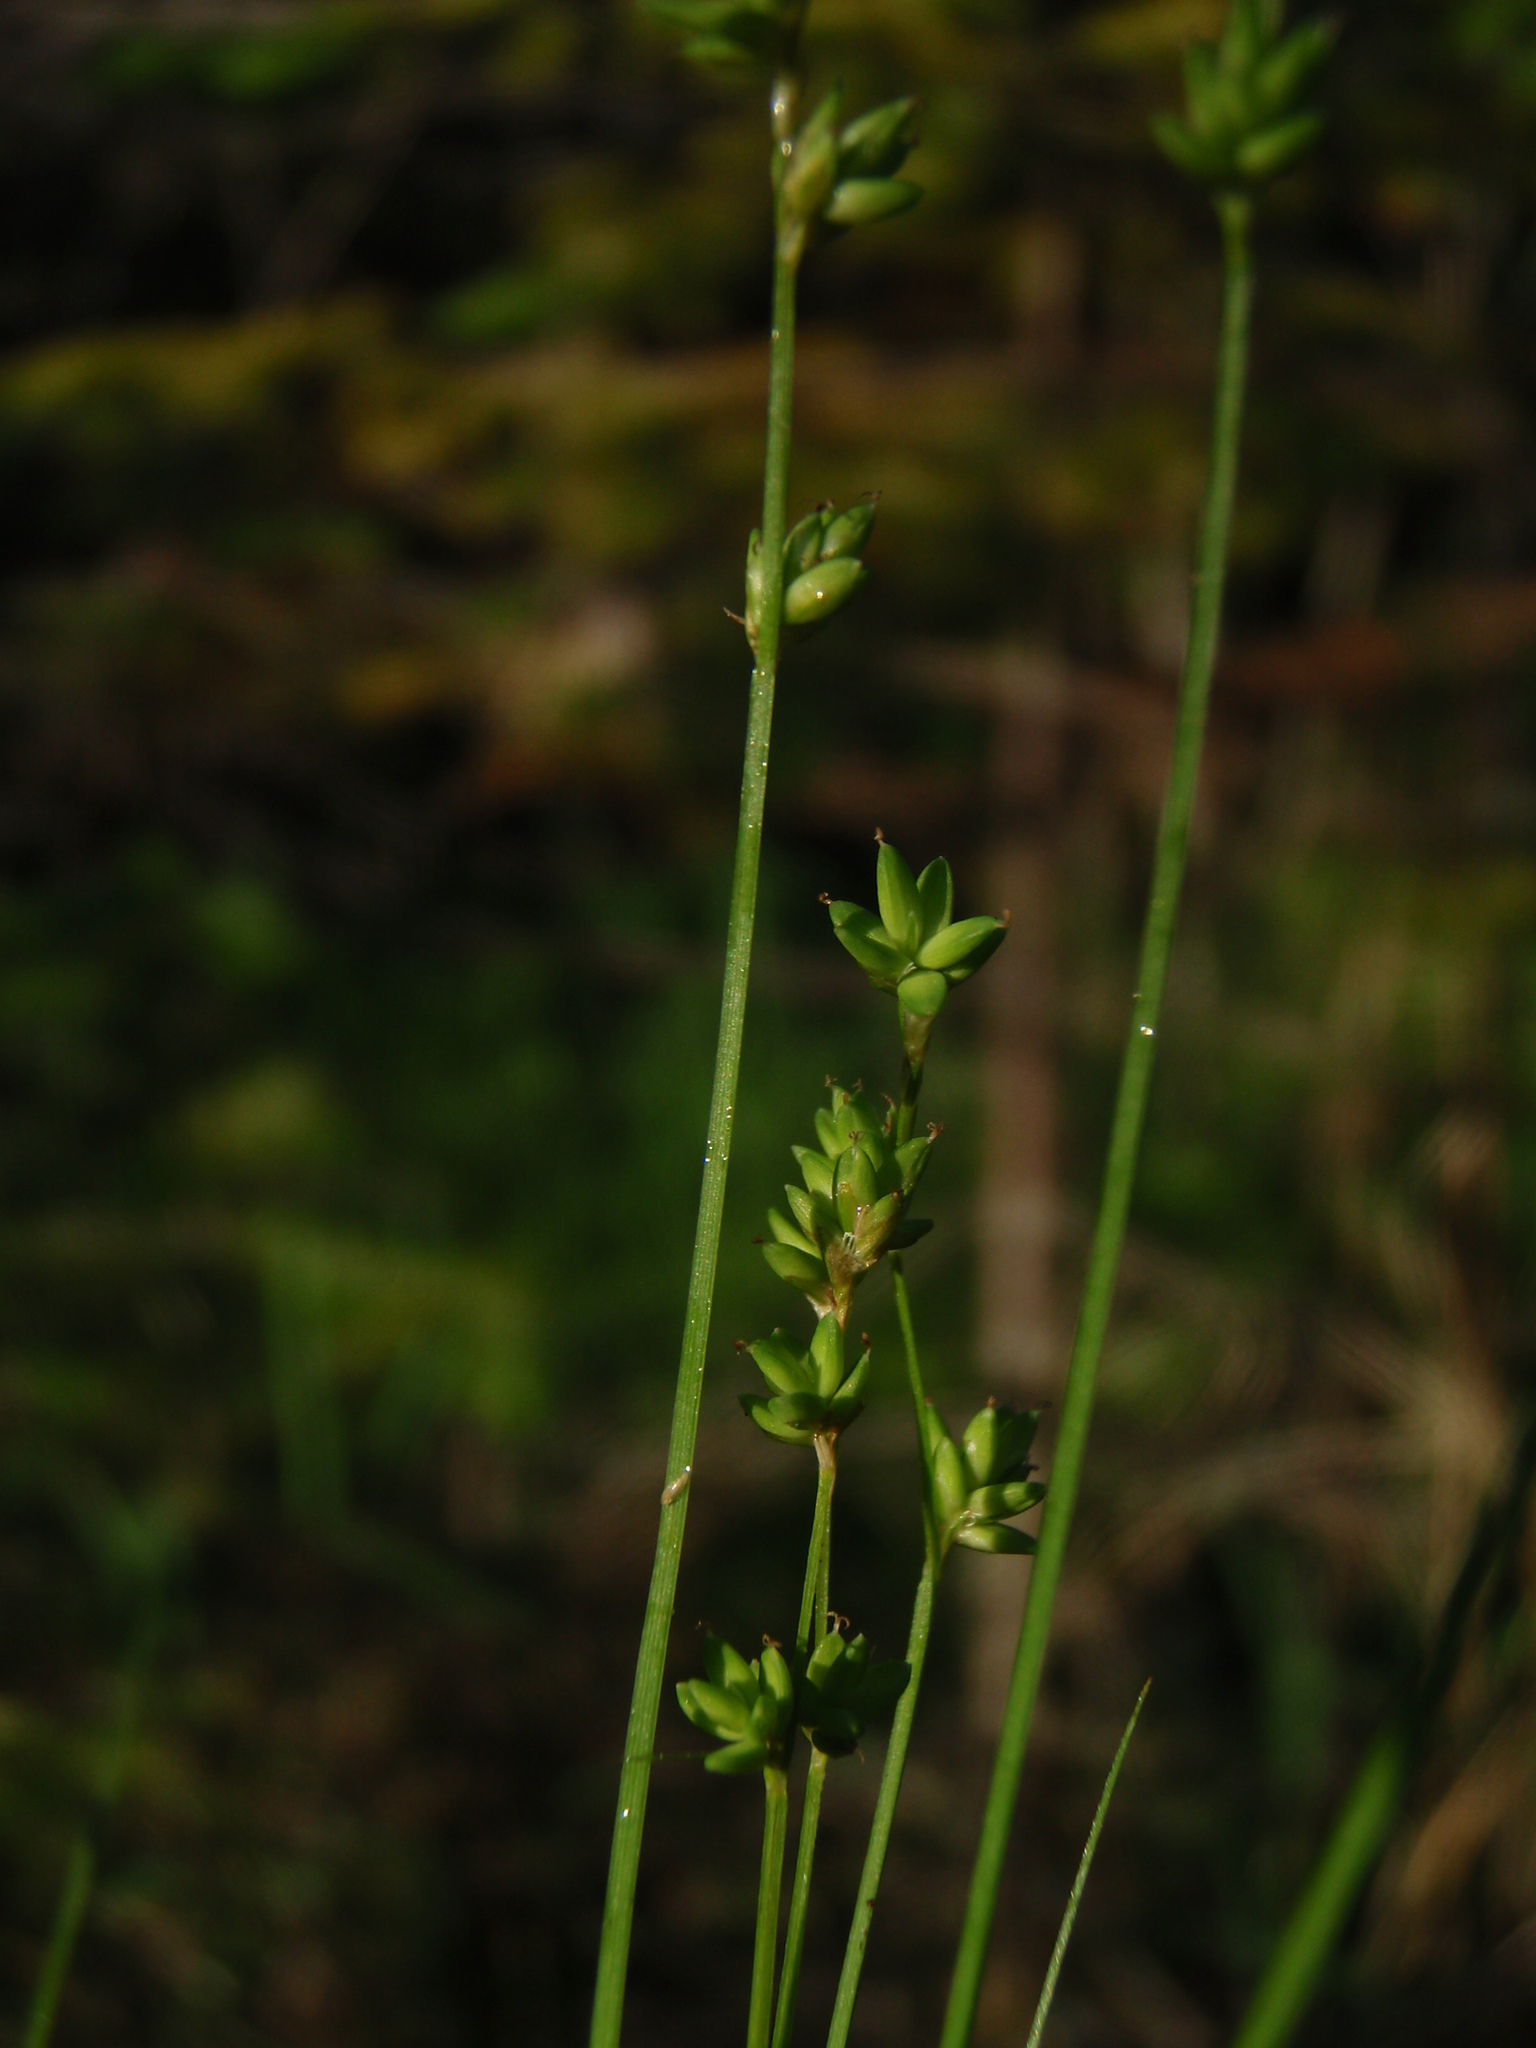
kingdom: Plantae
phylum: Tracheophyta
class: Liliopsida
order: Poales
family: Cyperaceae
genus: Carex
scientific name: Carex loliacea
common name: Ryegrass sedge
